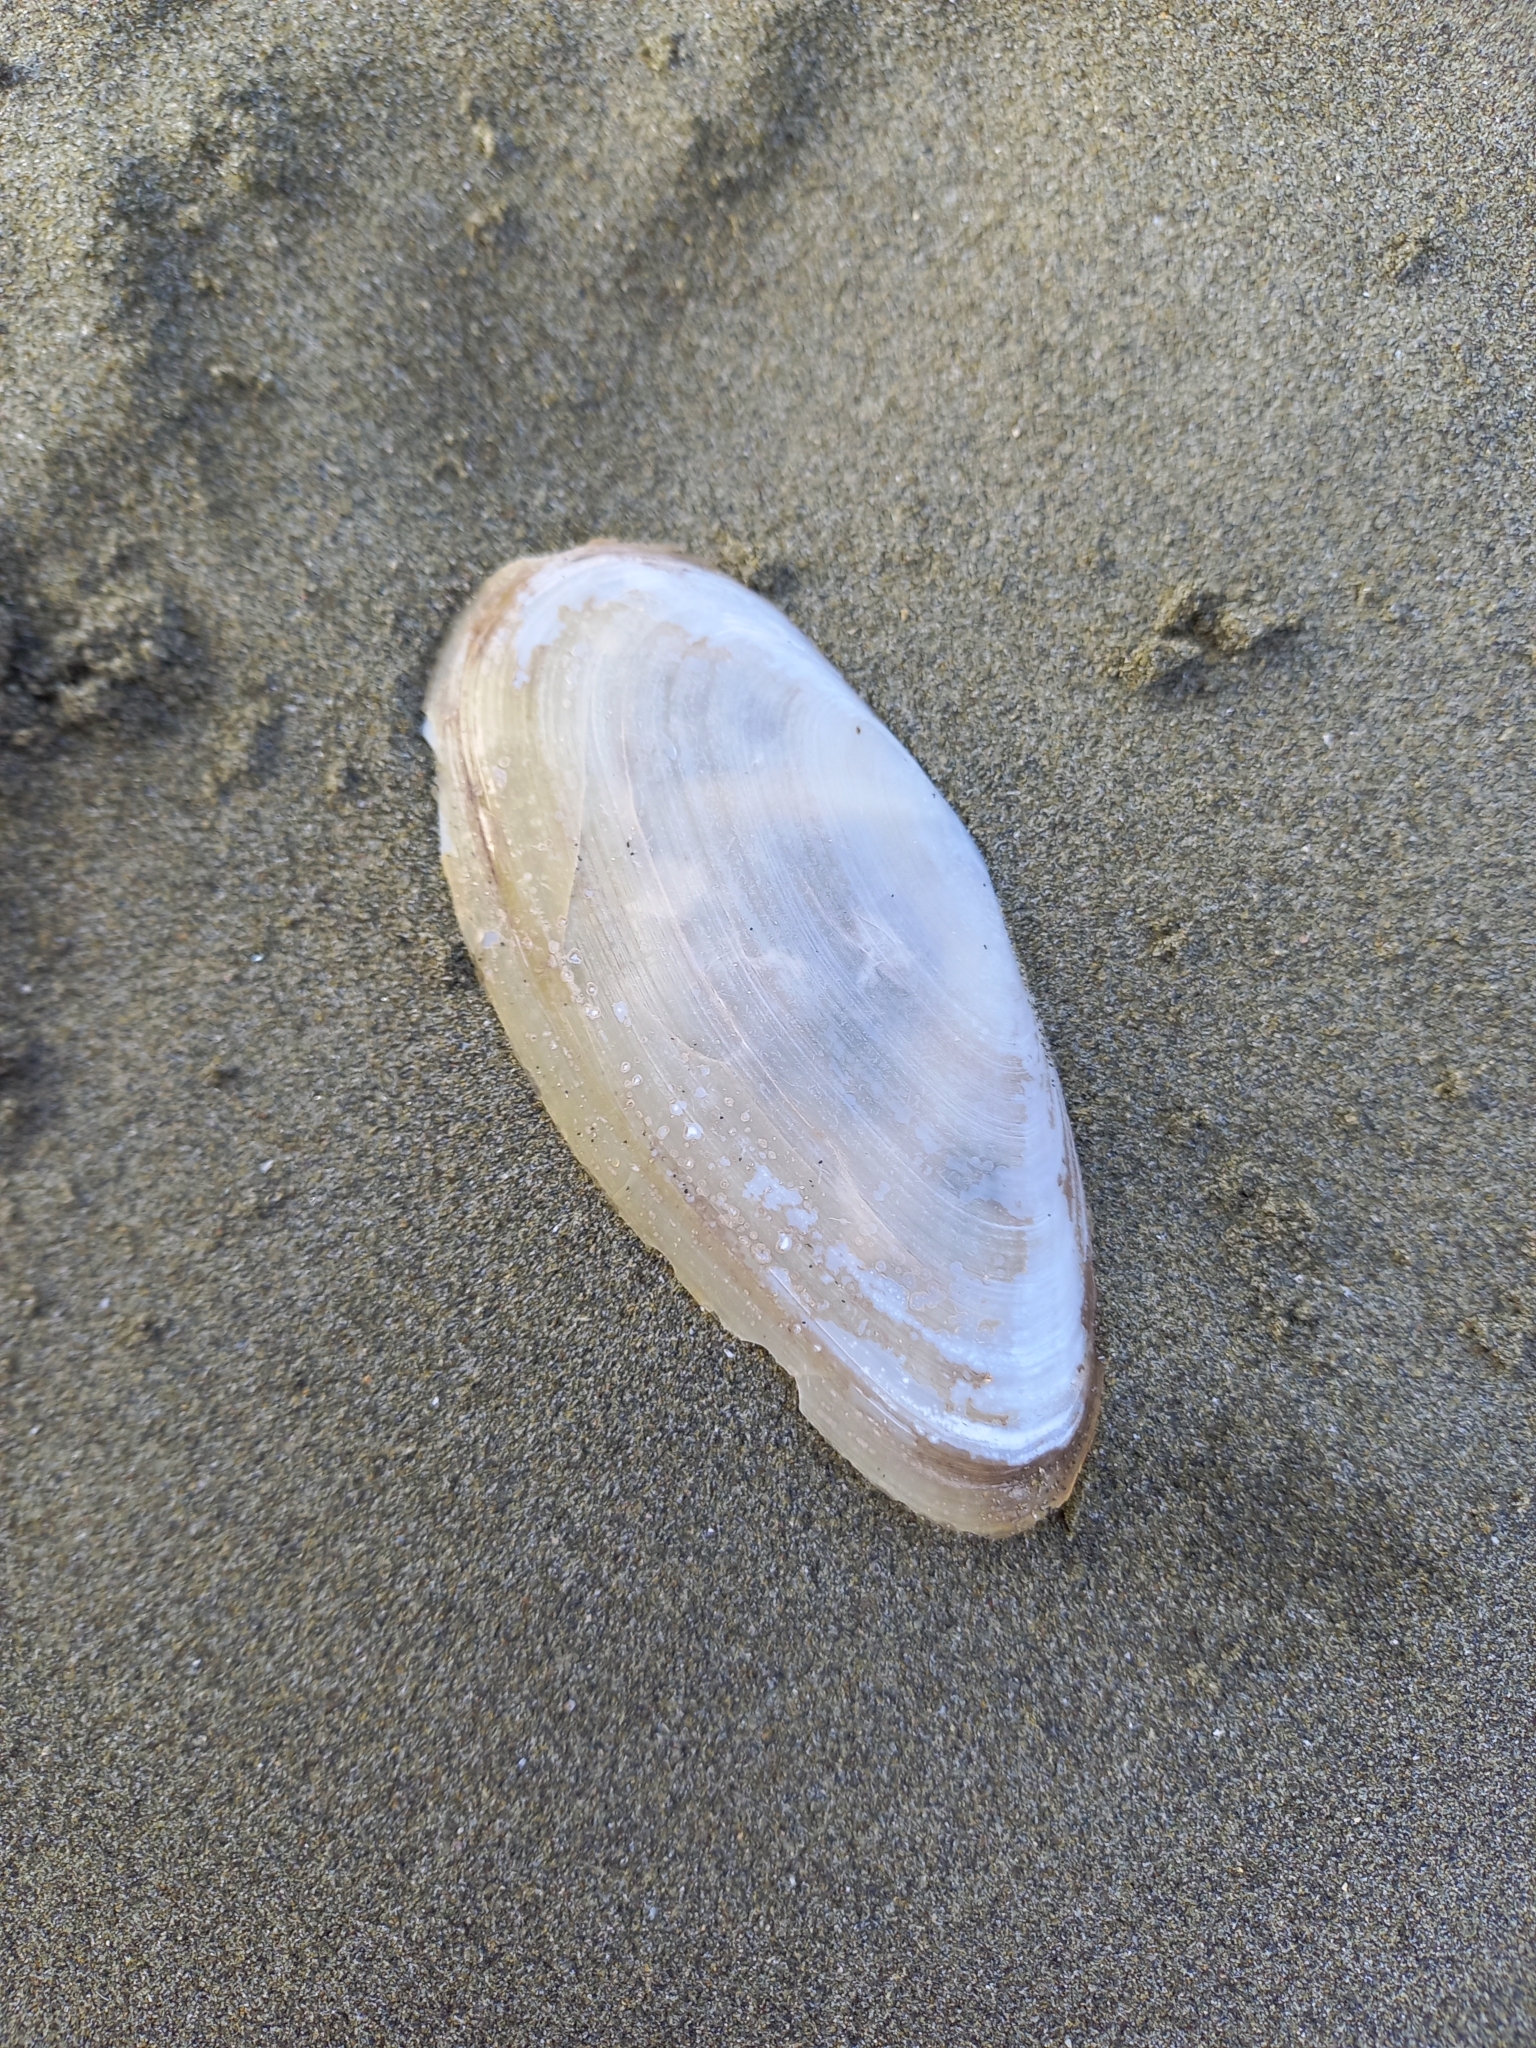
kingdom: Animalia
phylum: Mollusca
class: Bivalvia
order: Venerida
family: Mactridae
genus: Resania
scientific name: Resania lanceolata
